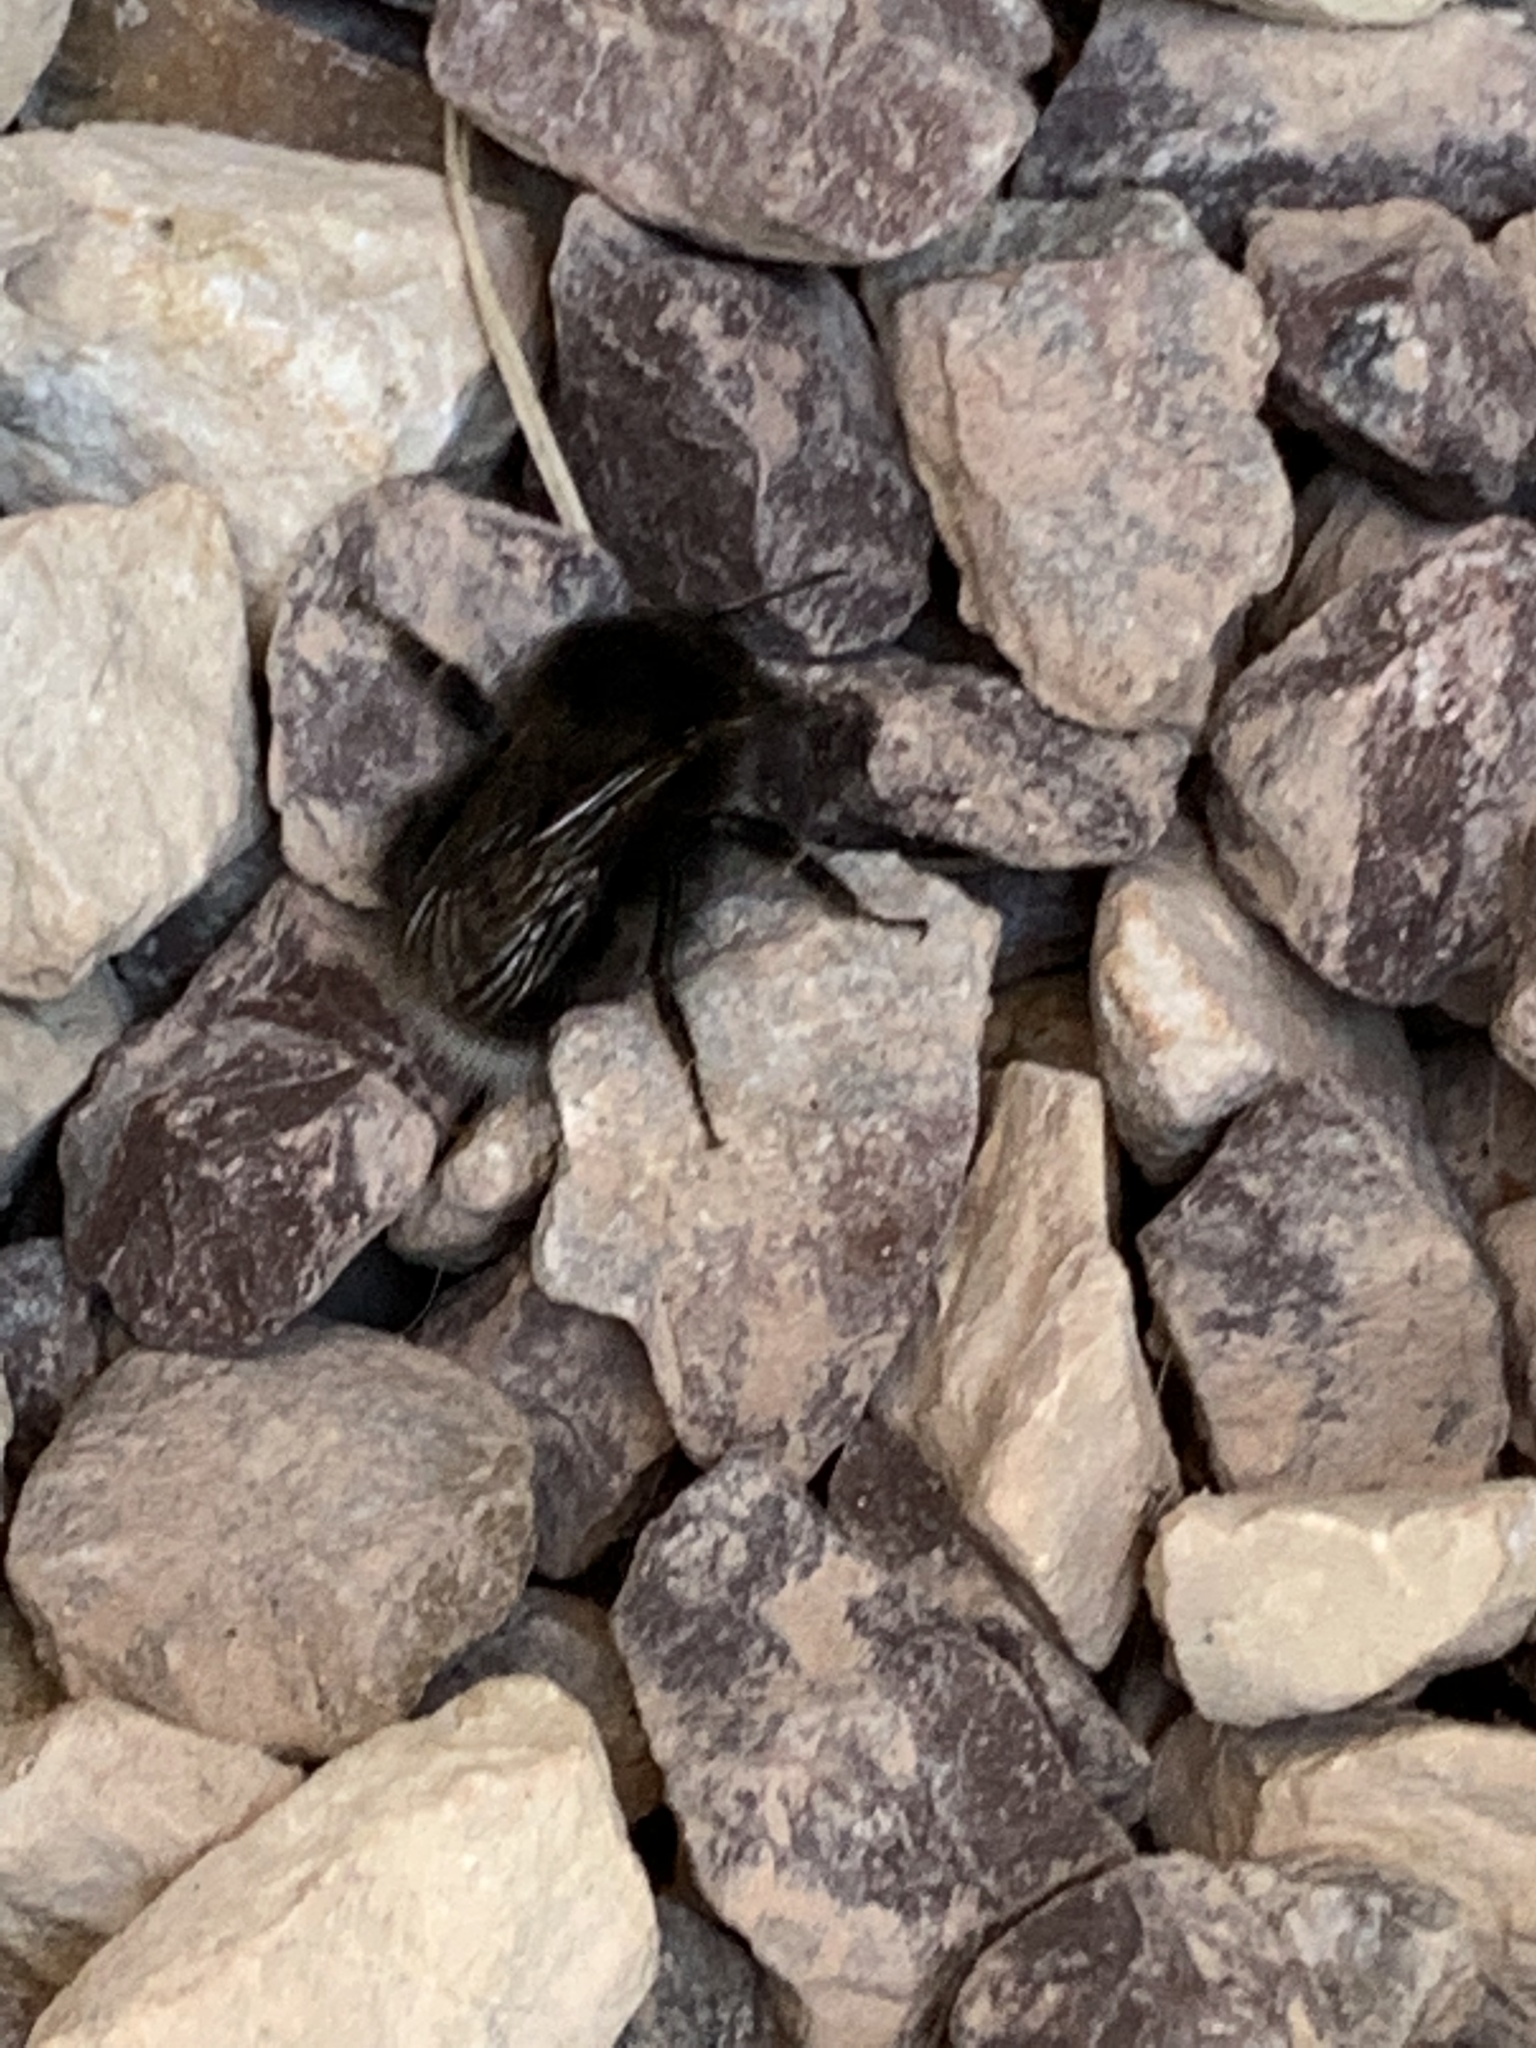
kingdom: Animalia
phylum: Arthropoda
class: Insecta
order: Hymenoptera
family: Apidae
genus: Bombus
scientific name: Bombus hypnorum
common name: New garden bumblebee
